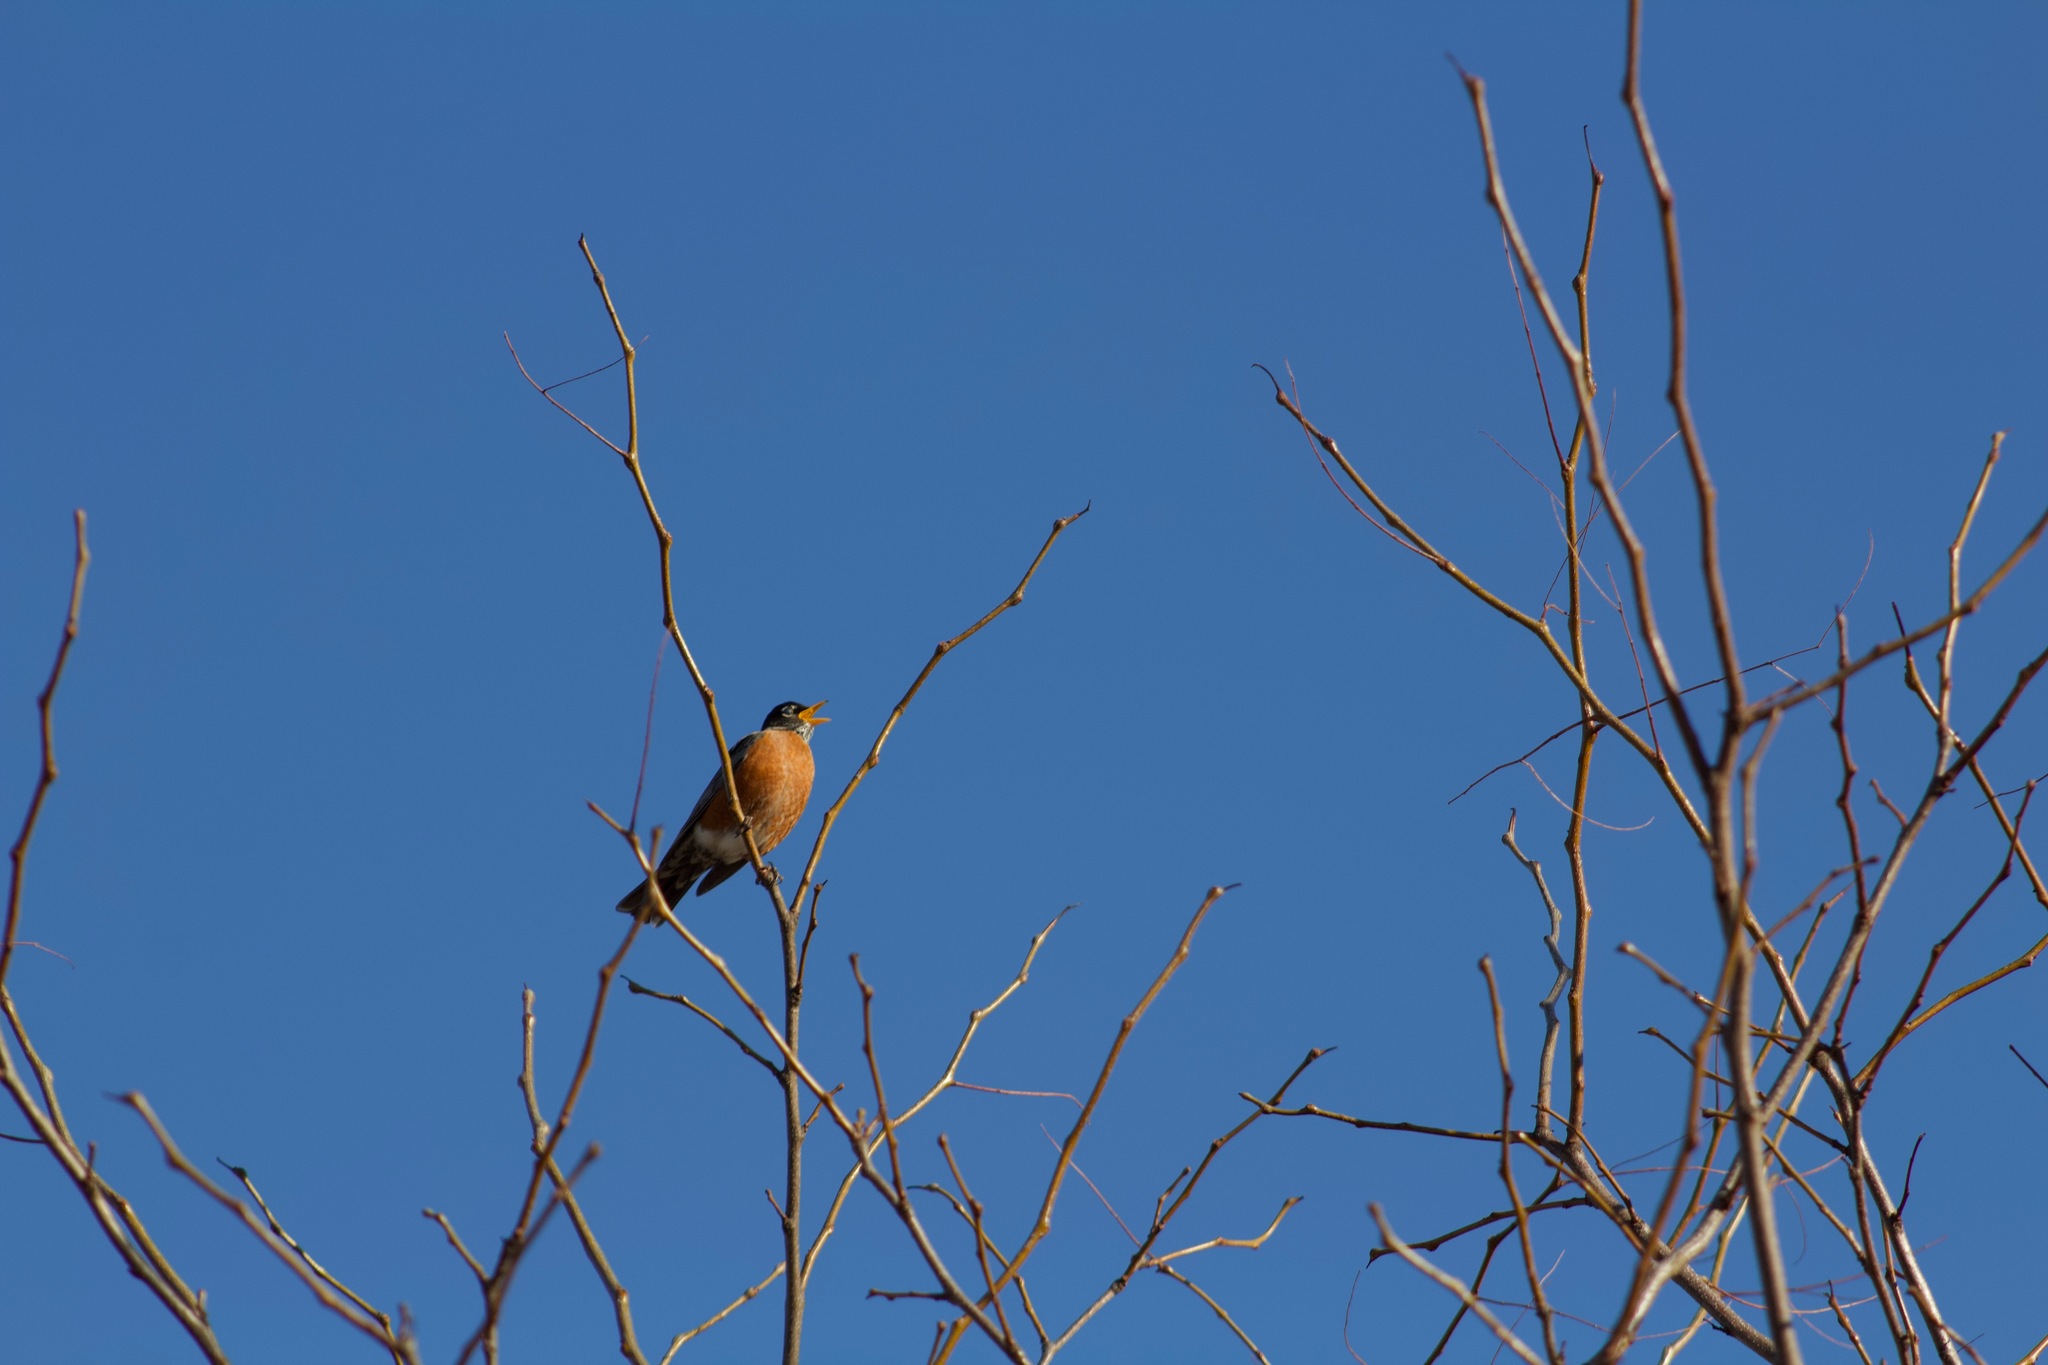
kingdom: Animalia
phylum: Chordata
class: Aves
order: Passeriformes
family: Turdidae
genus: Turdus
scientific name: Turdus migratorius
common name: American robin
